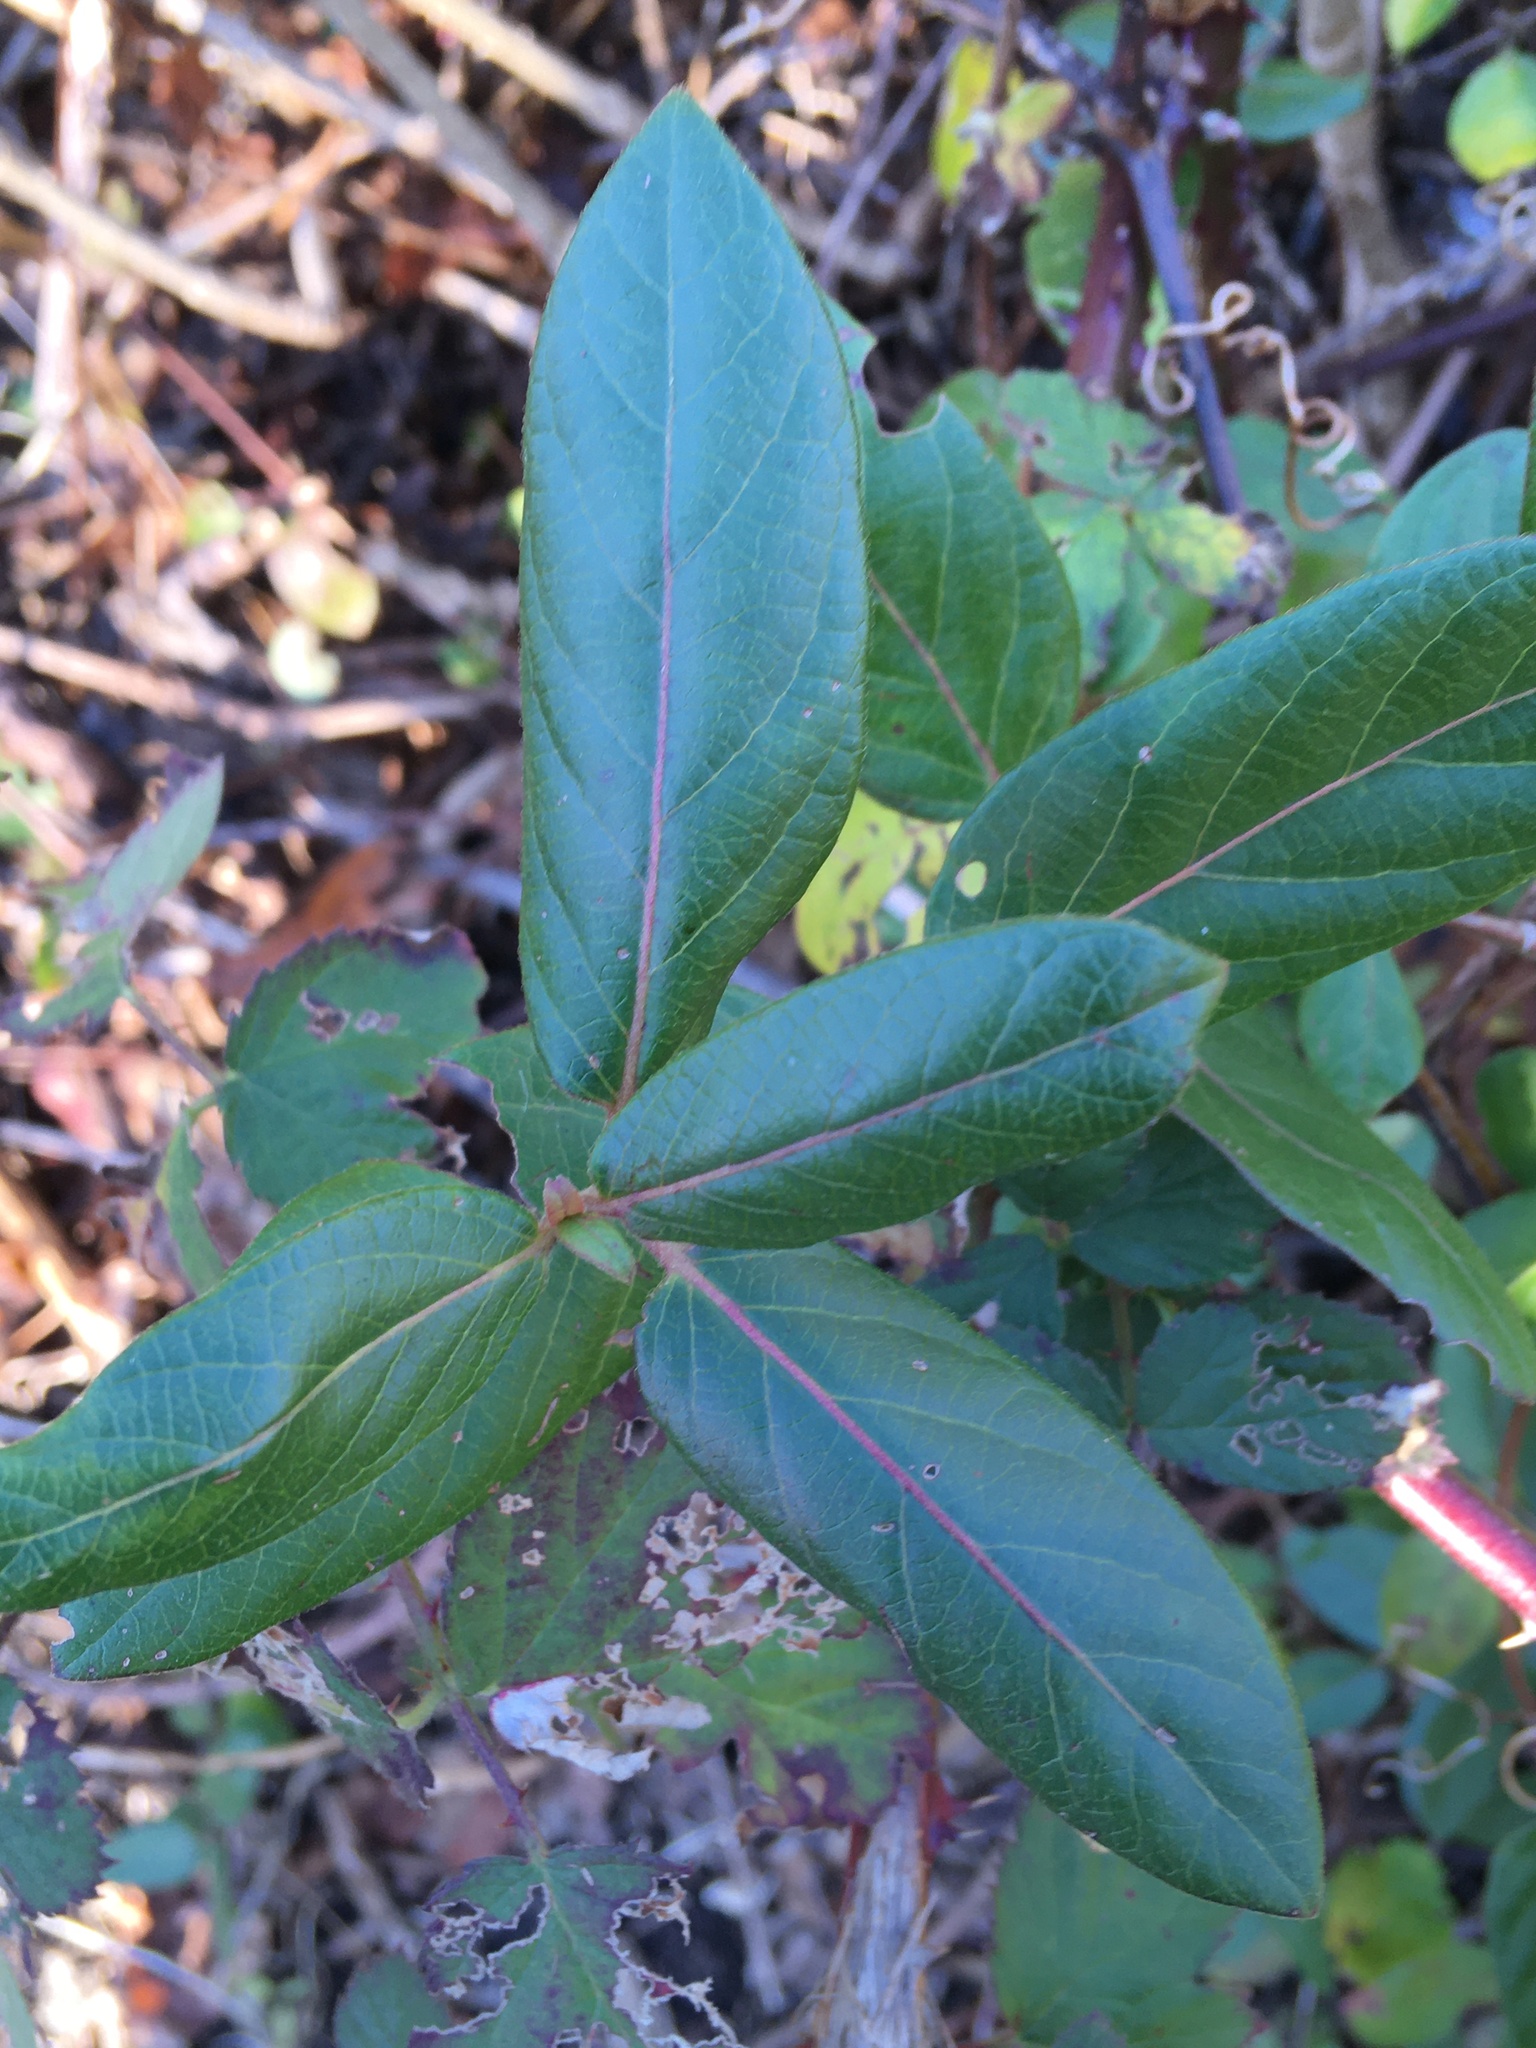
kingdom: Plantae
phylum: Tracheophyta
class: Magnoliopsida
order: Dipsacales
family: Caprifoliaceae
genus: Lonicera
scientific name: Lonicera japonica
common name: Japanese honeysuckle
